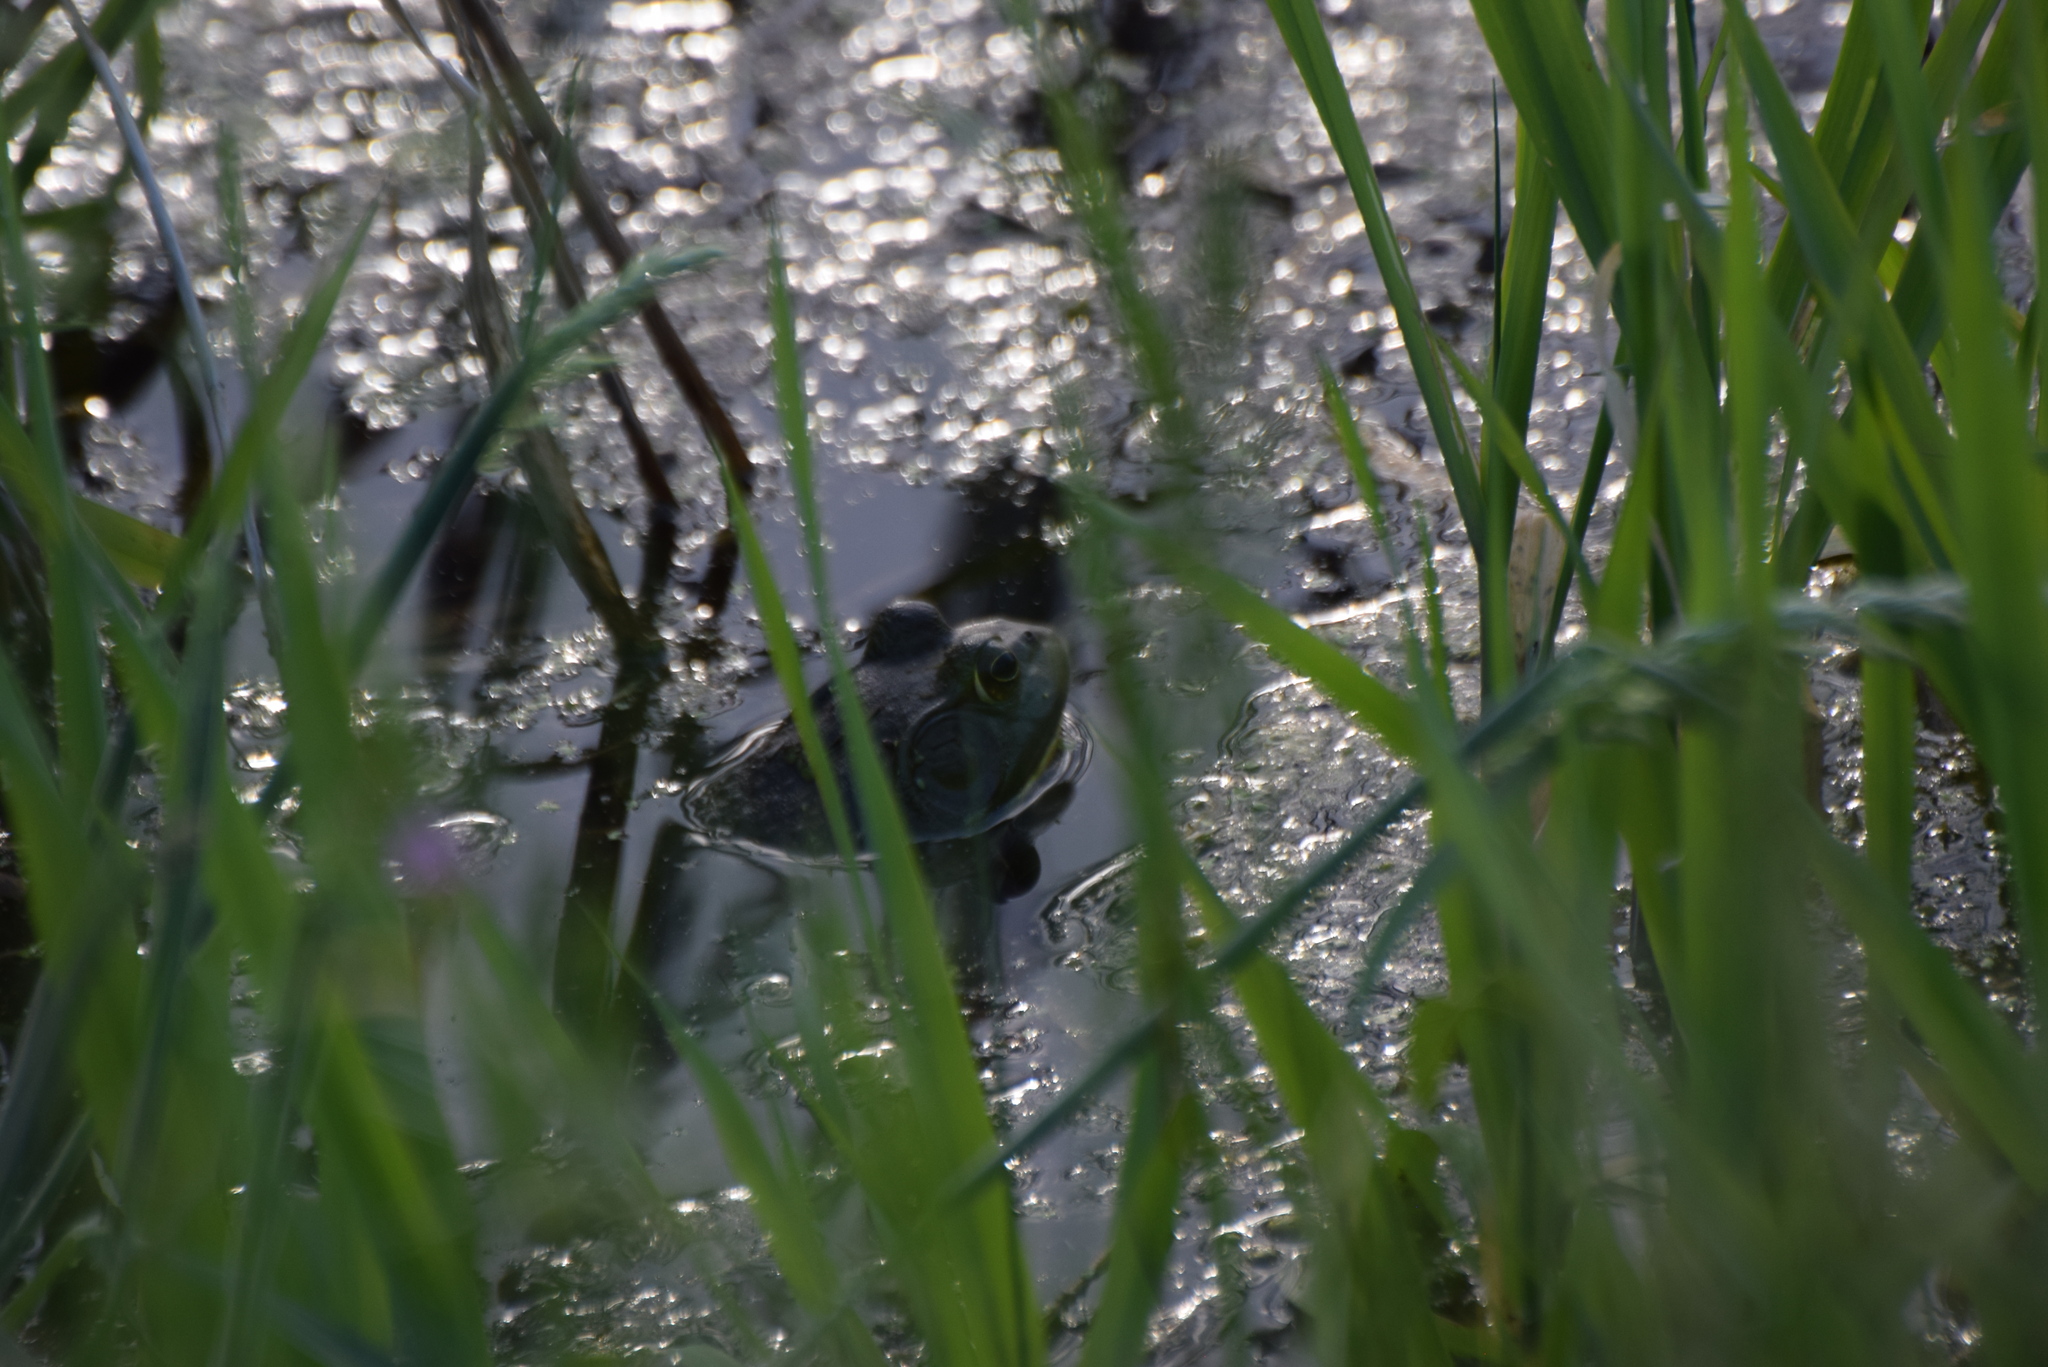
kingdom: Animalia
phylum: Chordata
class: Amphibia
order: Anura
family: Ranidae
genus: Lithobates
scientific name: Lithobates catesbeianus
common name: American bullfrog
